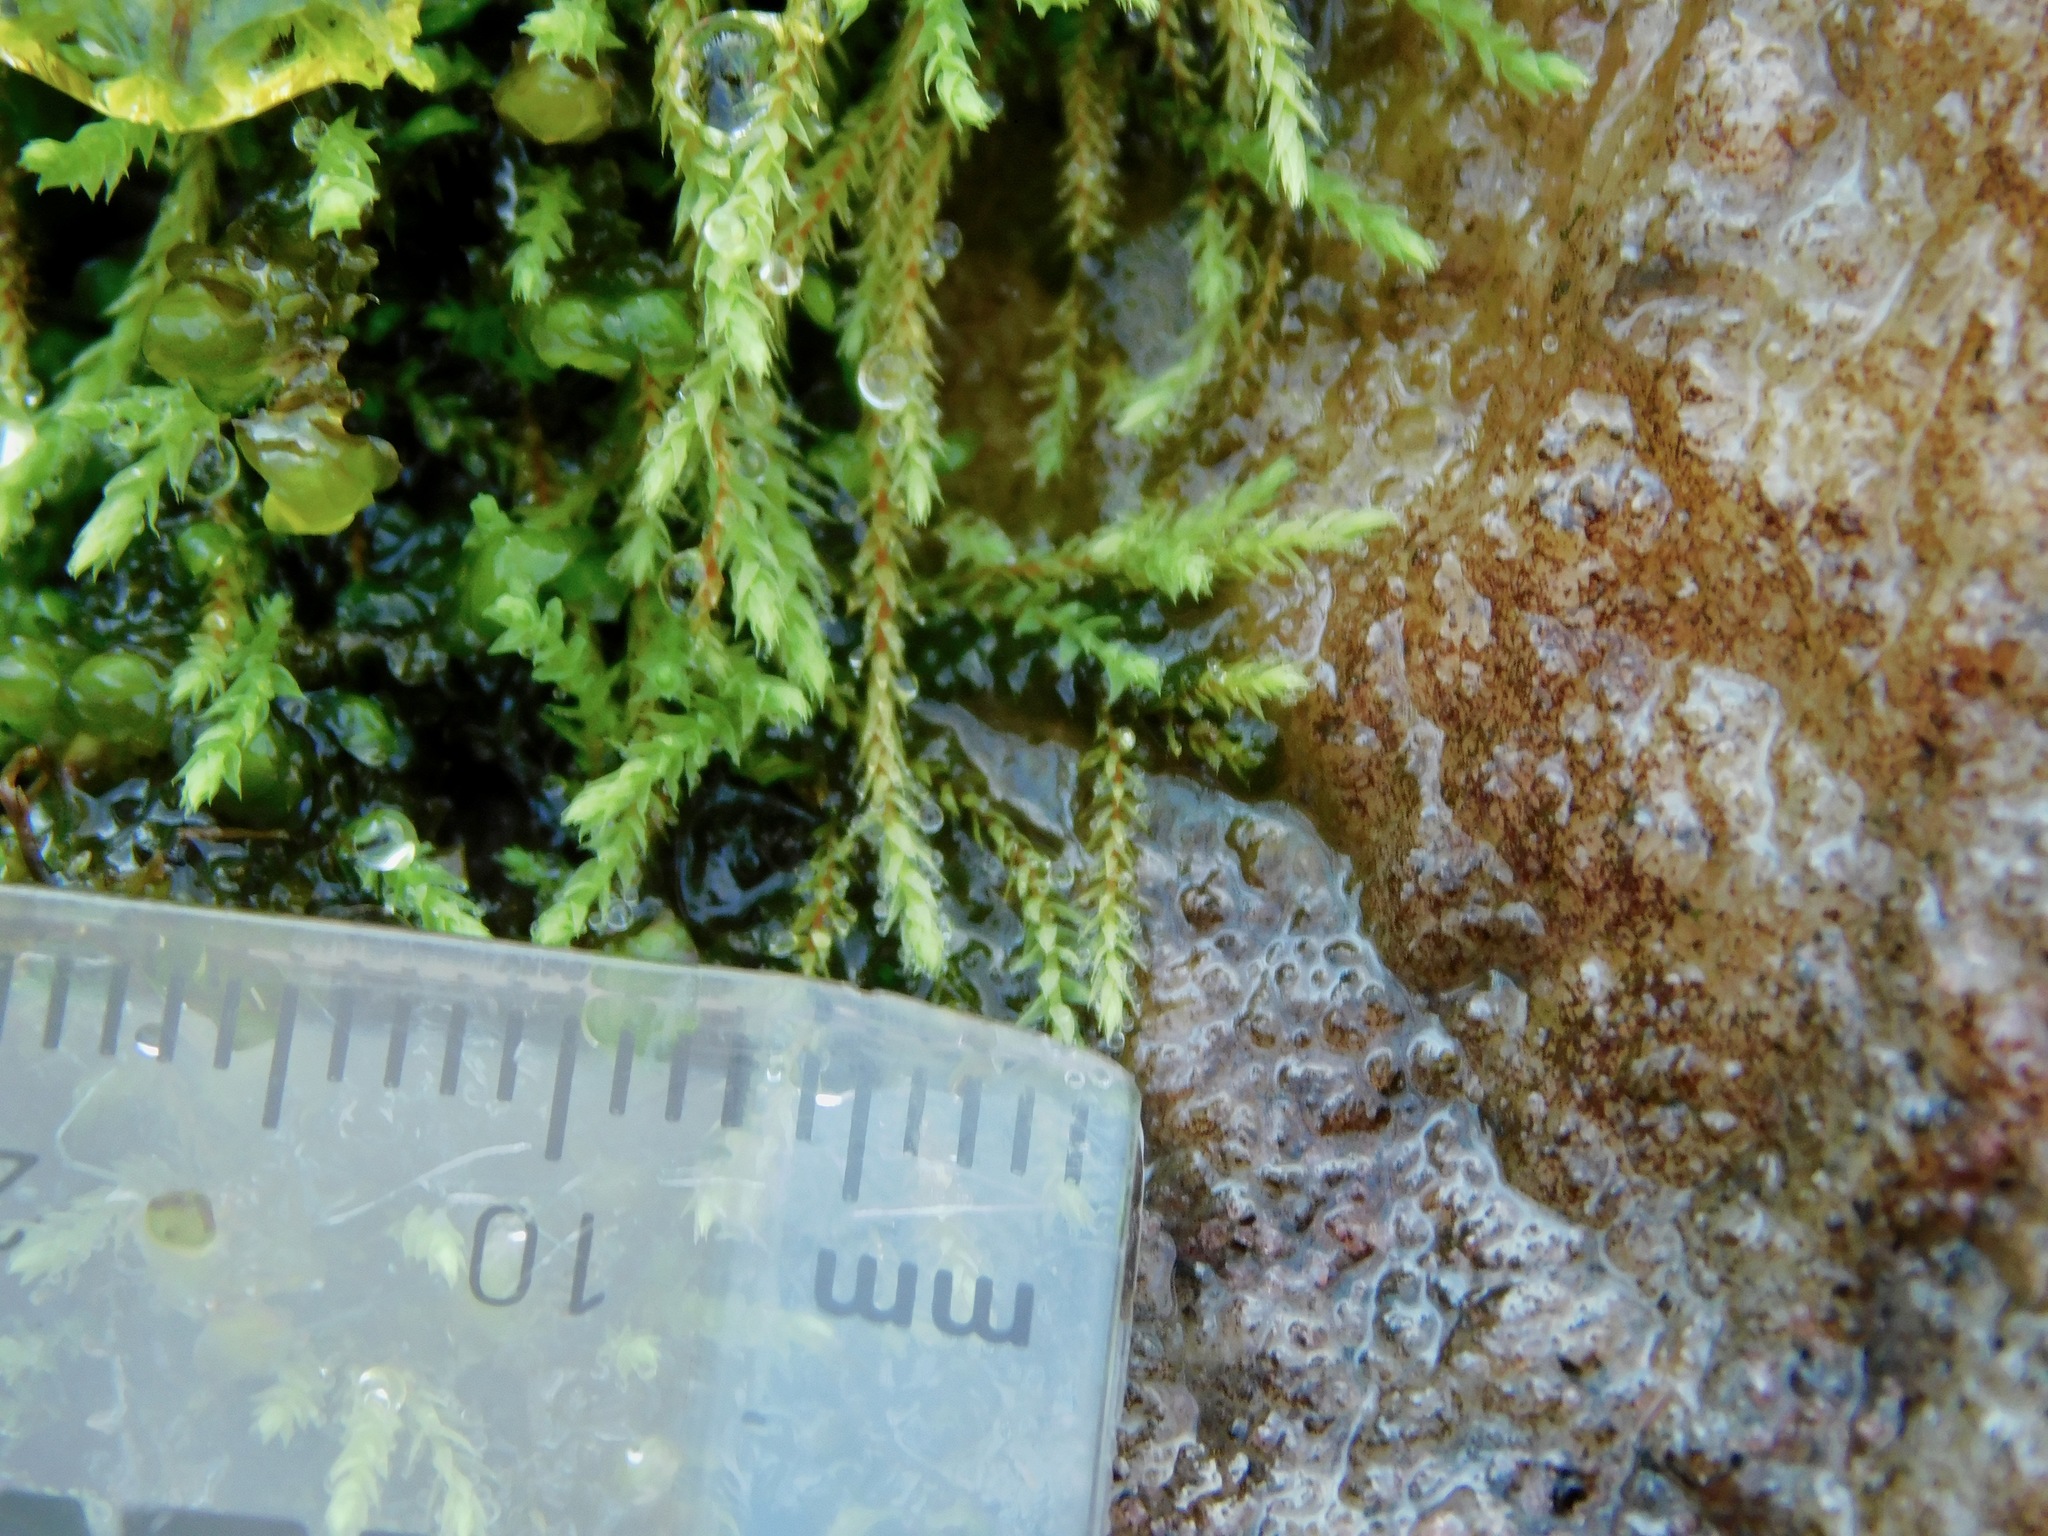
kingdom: Plantae
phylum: Bryophyta
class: Bryopsida
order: Bartramiales
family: Bartramiaceae
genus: Philonotis
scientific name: Philonotis capillaris
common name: Arnell's apple-moss
